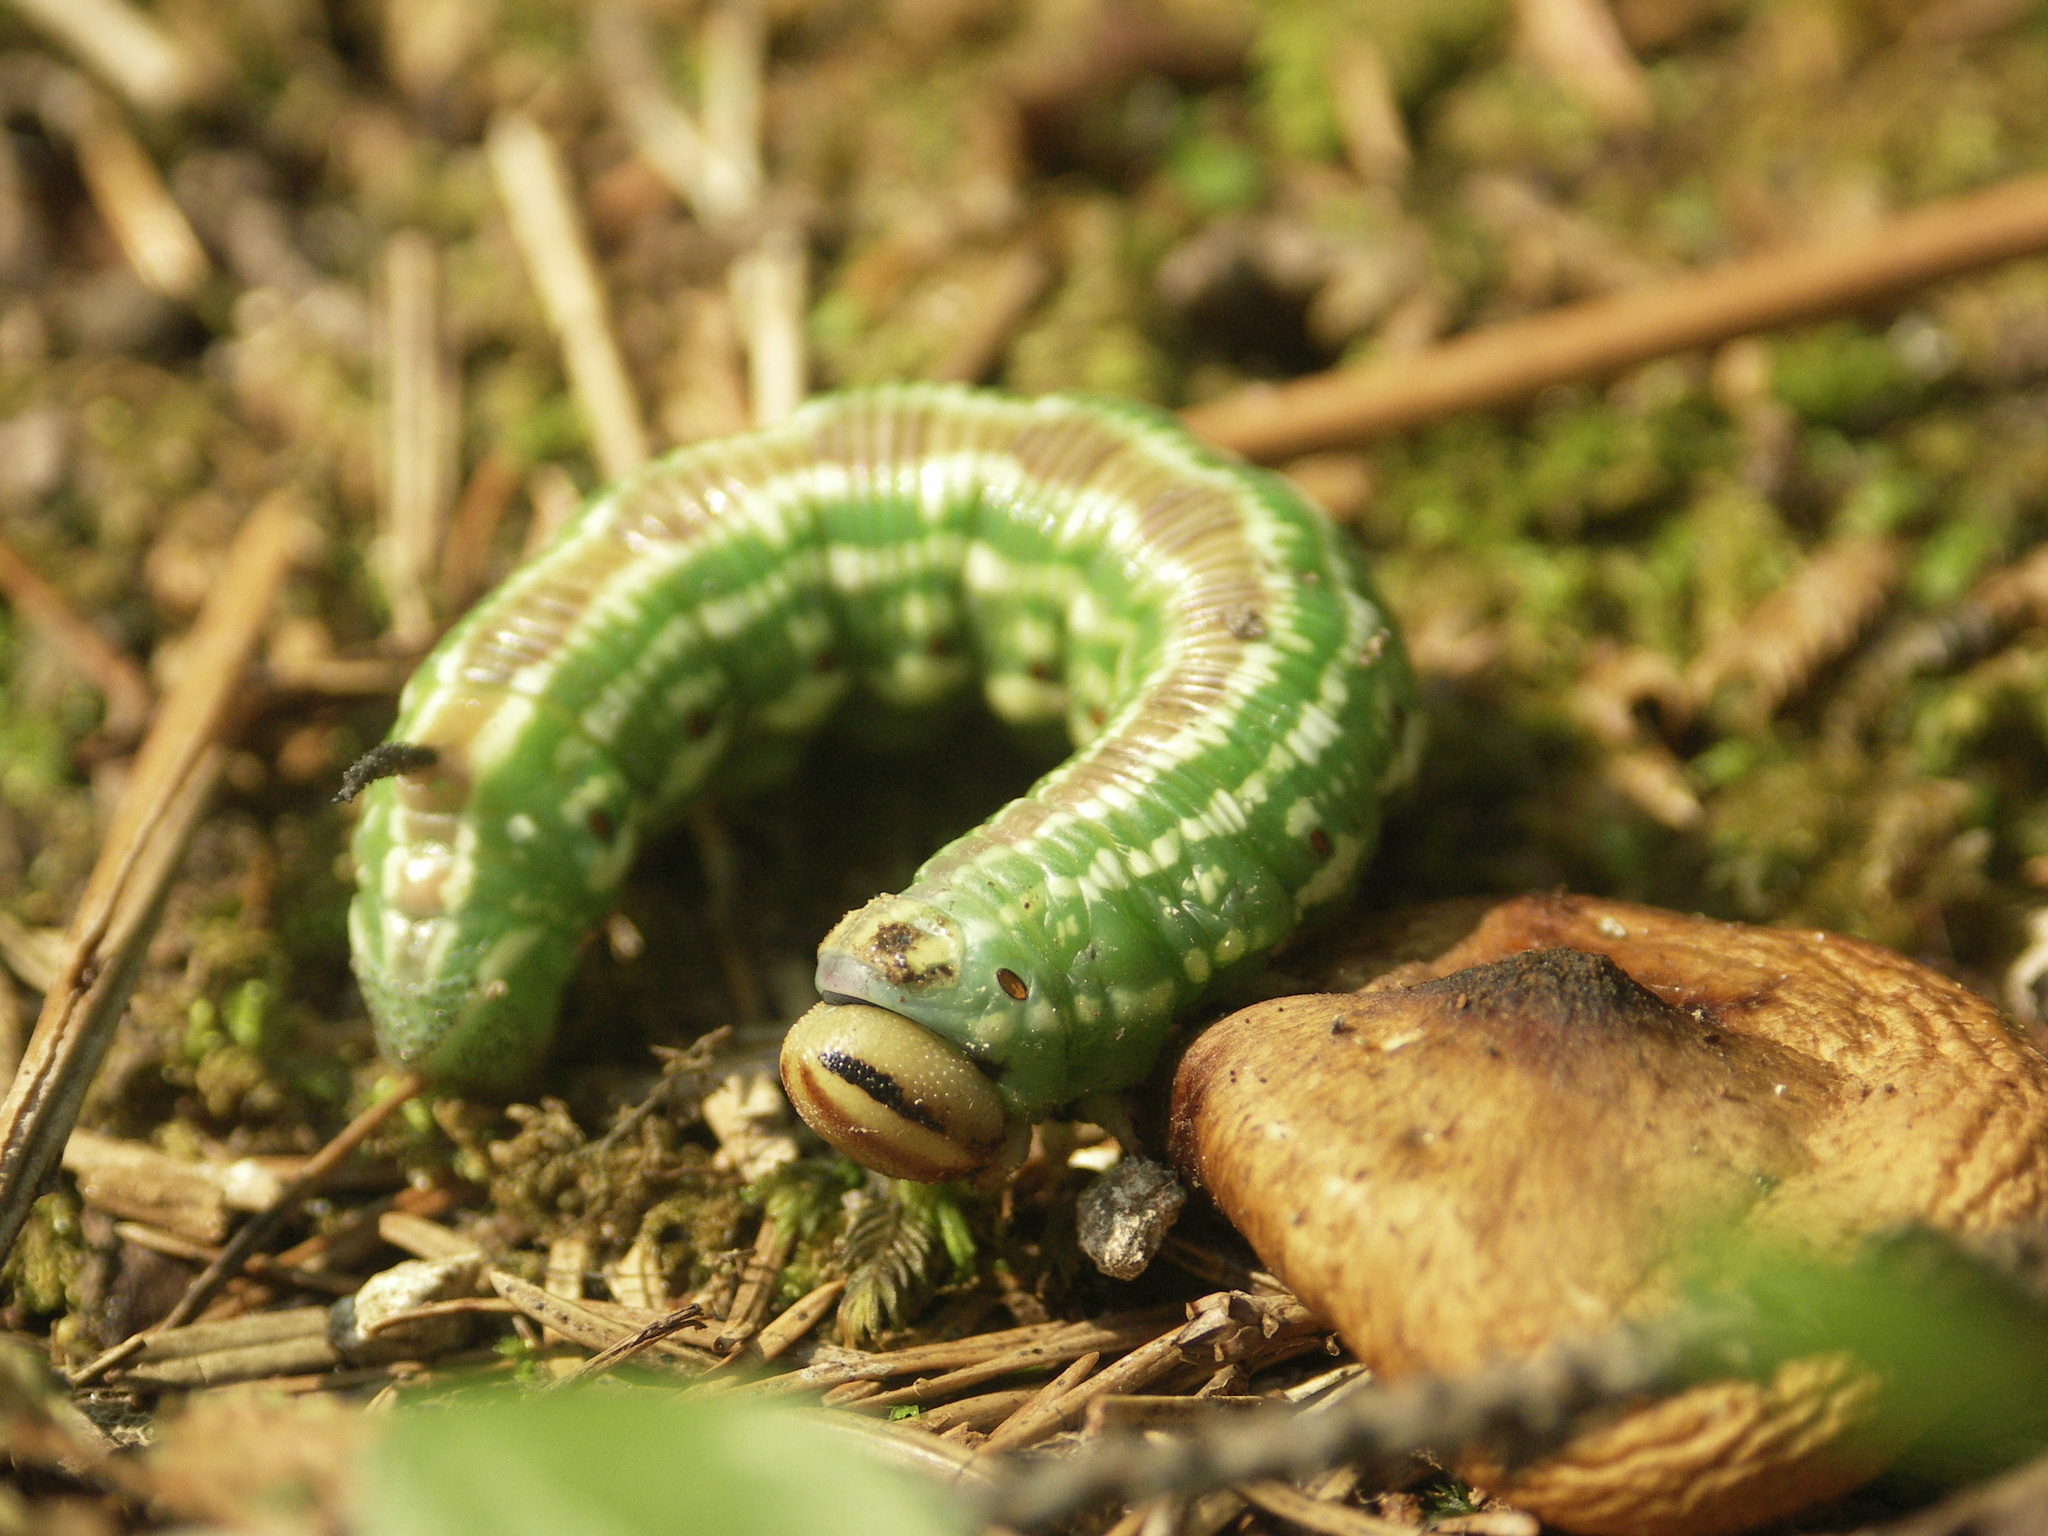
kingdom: Animalia
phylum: Arthropoda
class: Insecta
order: Lepidoptera
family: Sphingidae
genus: Sphinx
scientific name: Sphinx pinastri
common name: Pine hawk-moth
